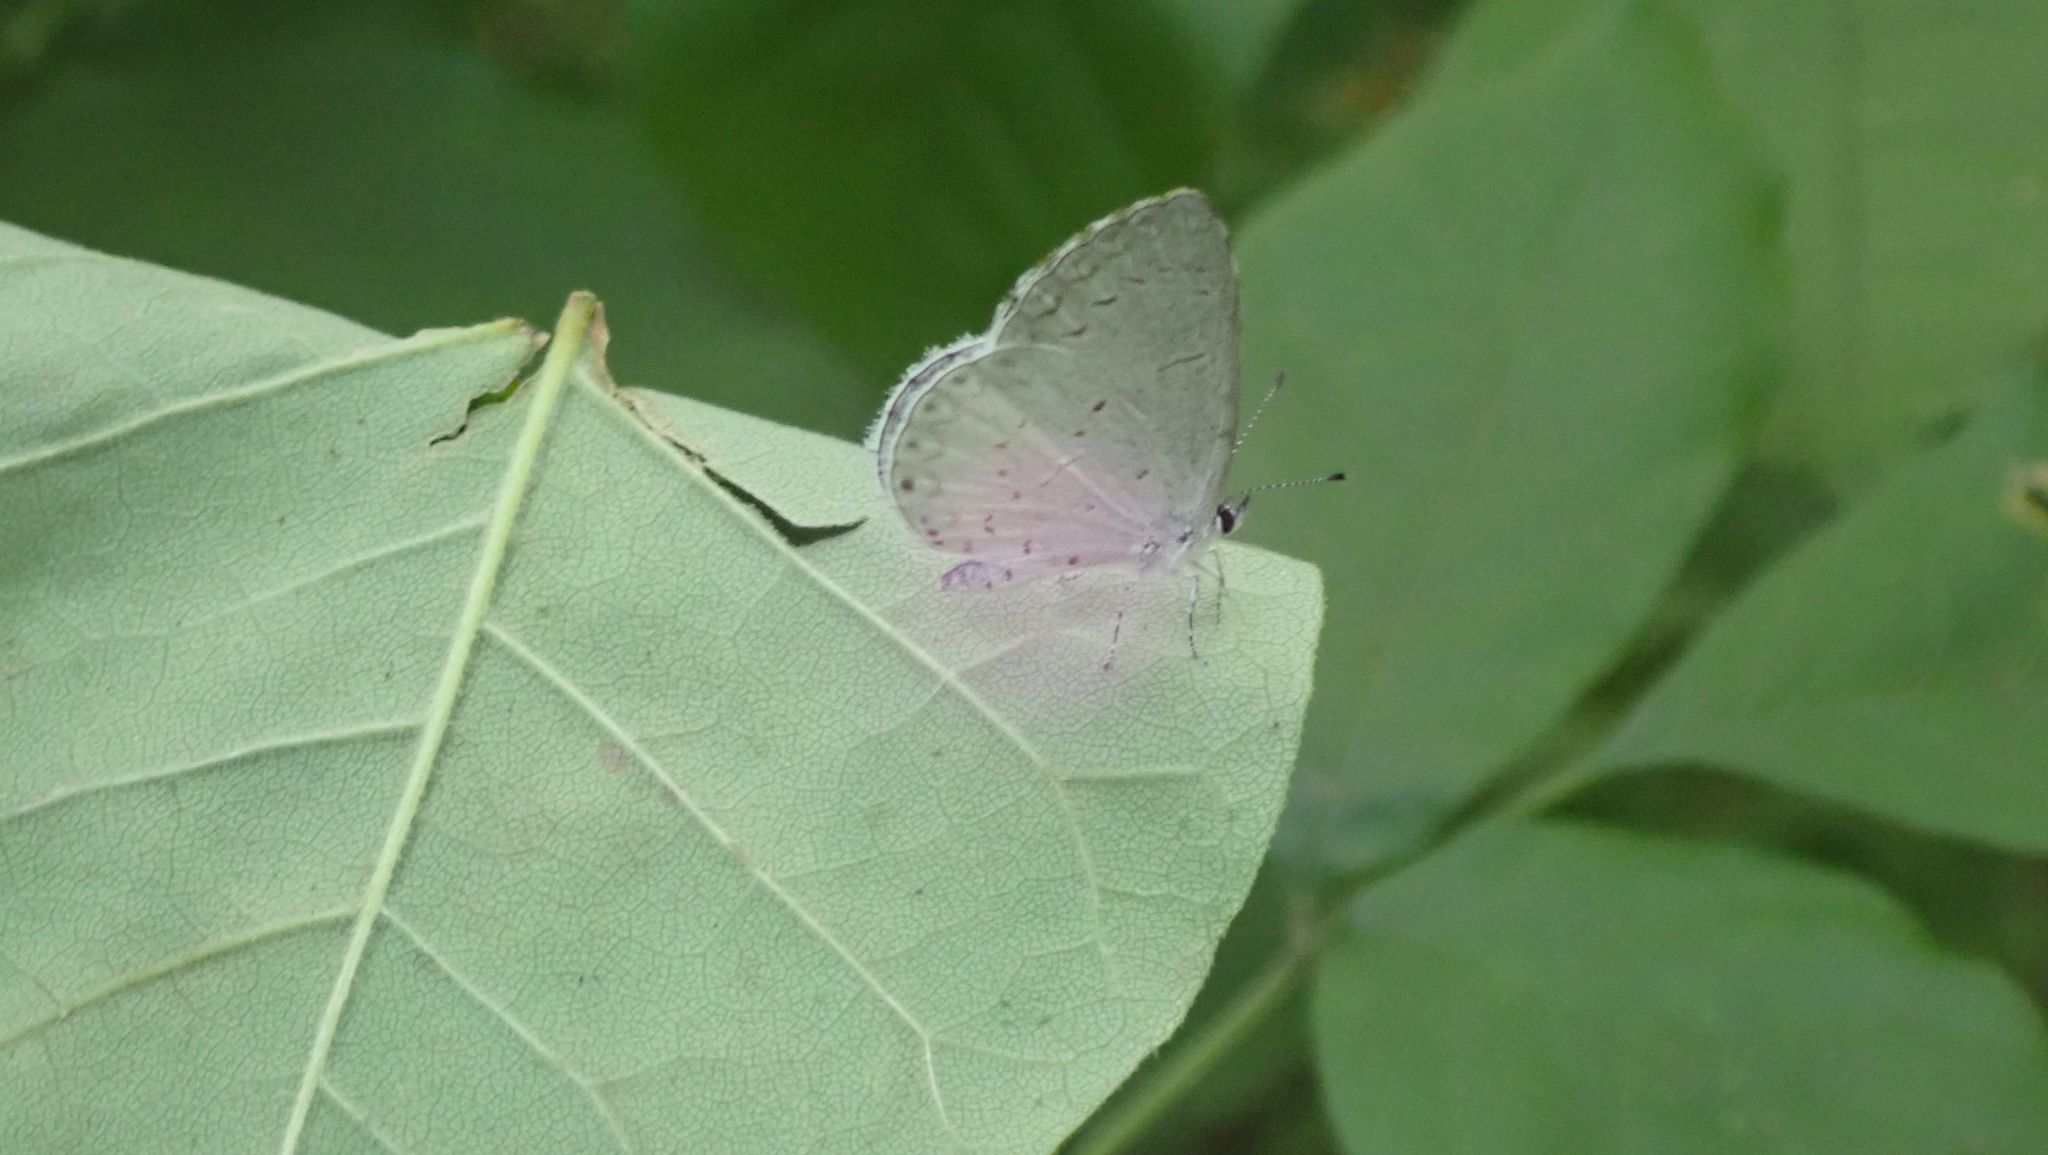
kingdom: Animalia
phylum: Arthropoda
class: Insecta
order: Lepidoptera
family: Lycaenidae
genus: Cyaniris
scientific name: Cyaniris neglecta
